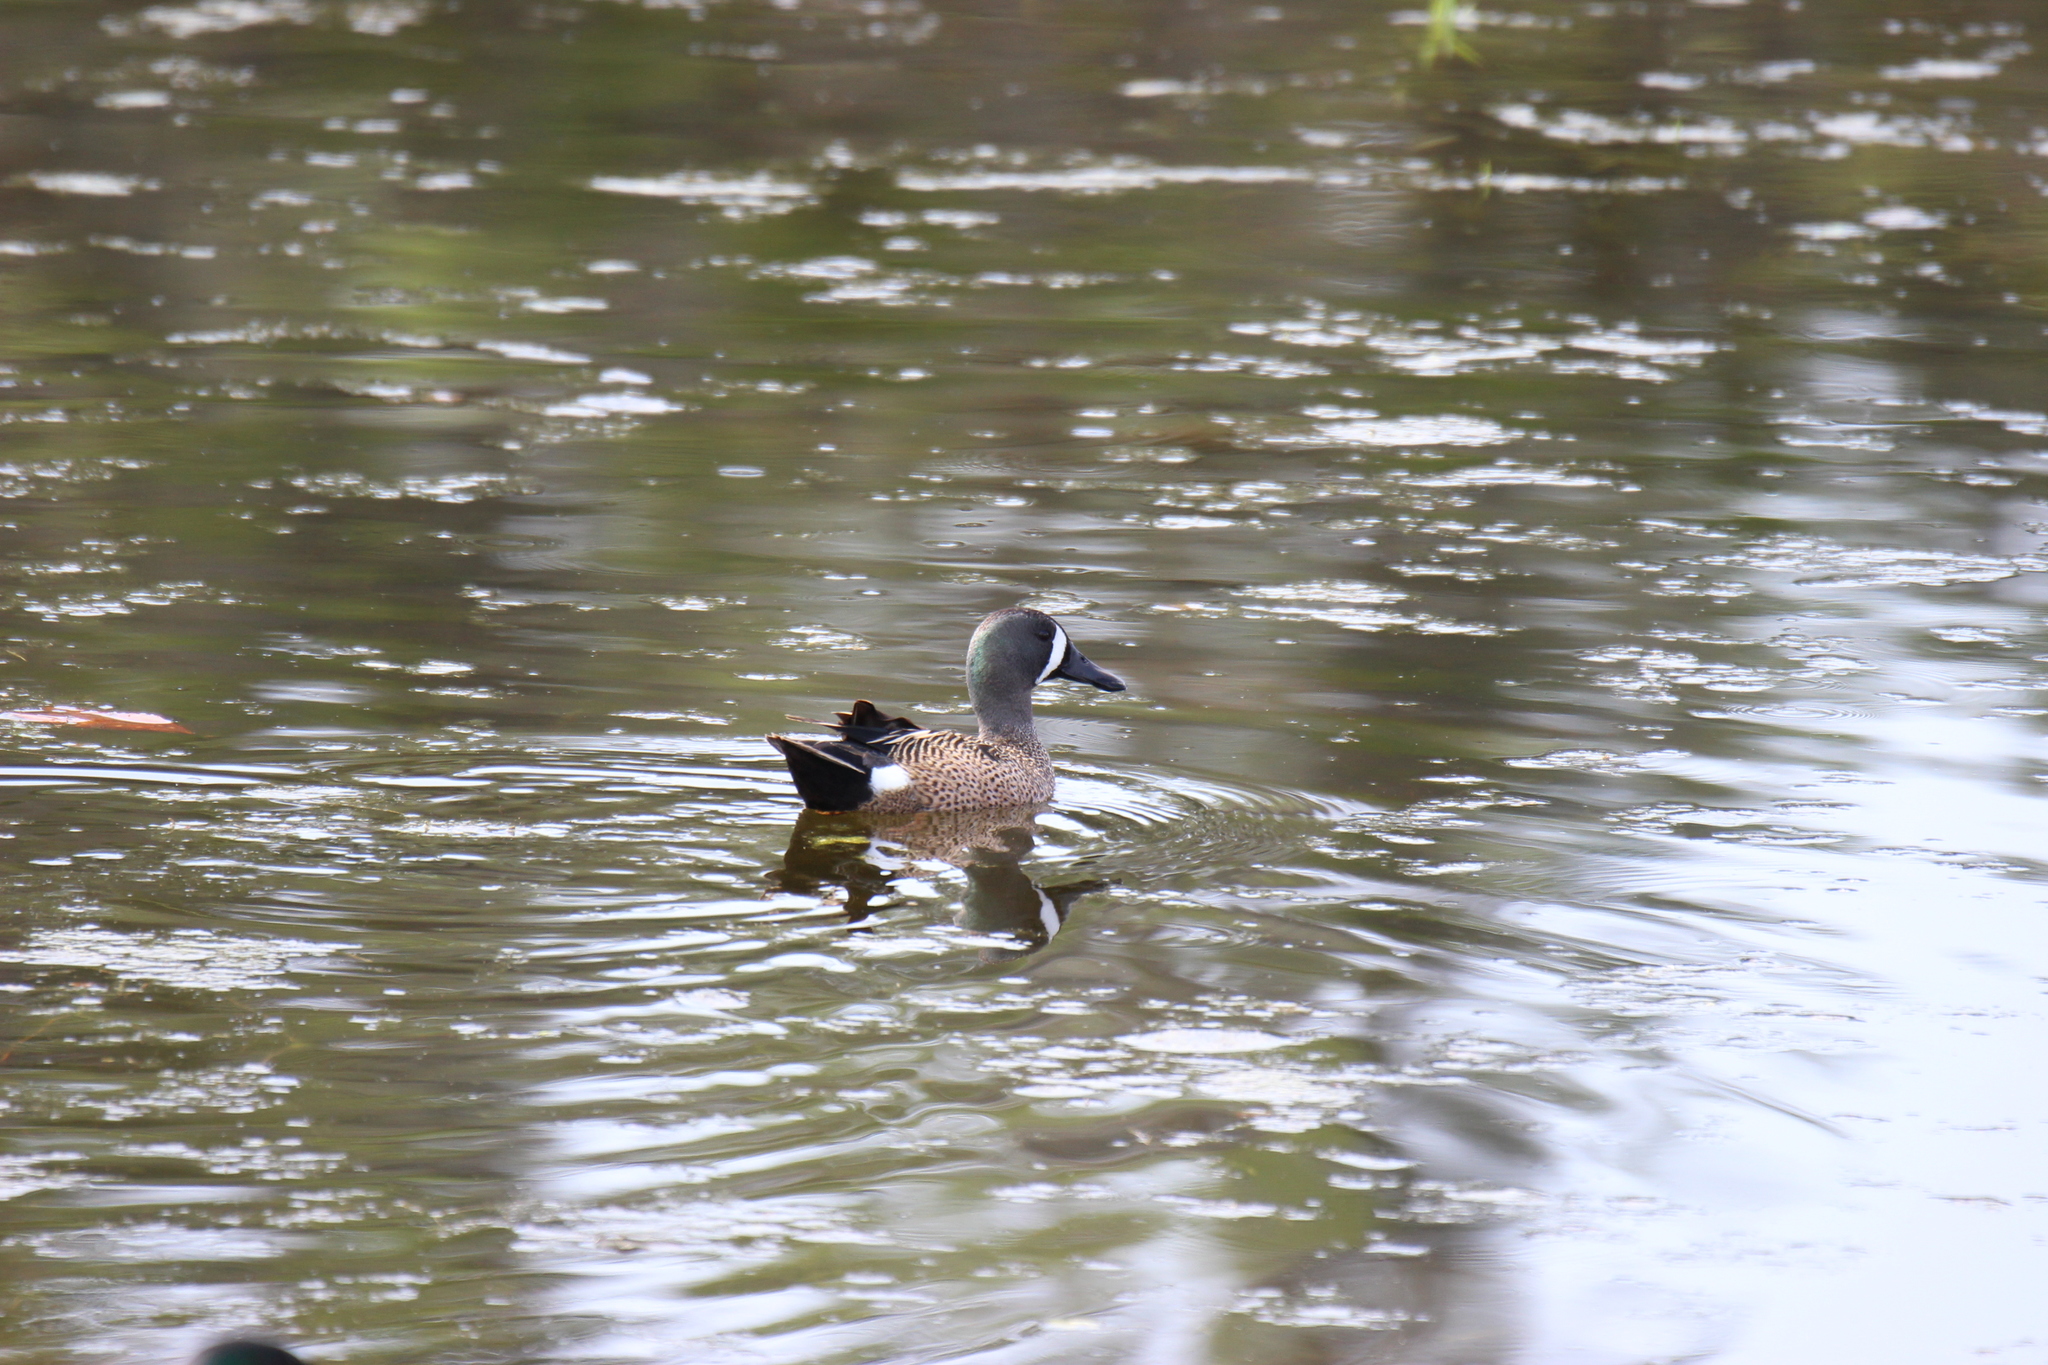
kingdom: Animalia
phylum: Chordata
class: Aves
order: Anseriformes
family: Anatidae
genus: Spatula
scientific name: Spatula discors
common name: Blue-winged teal
